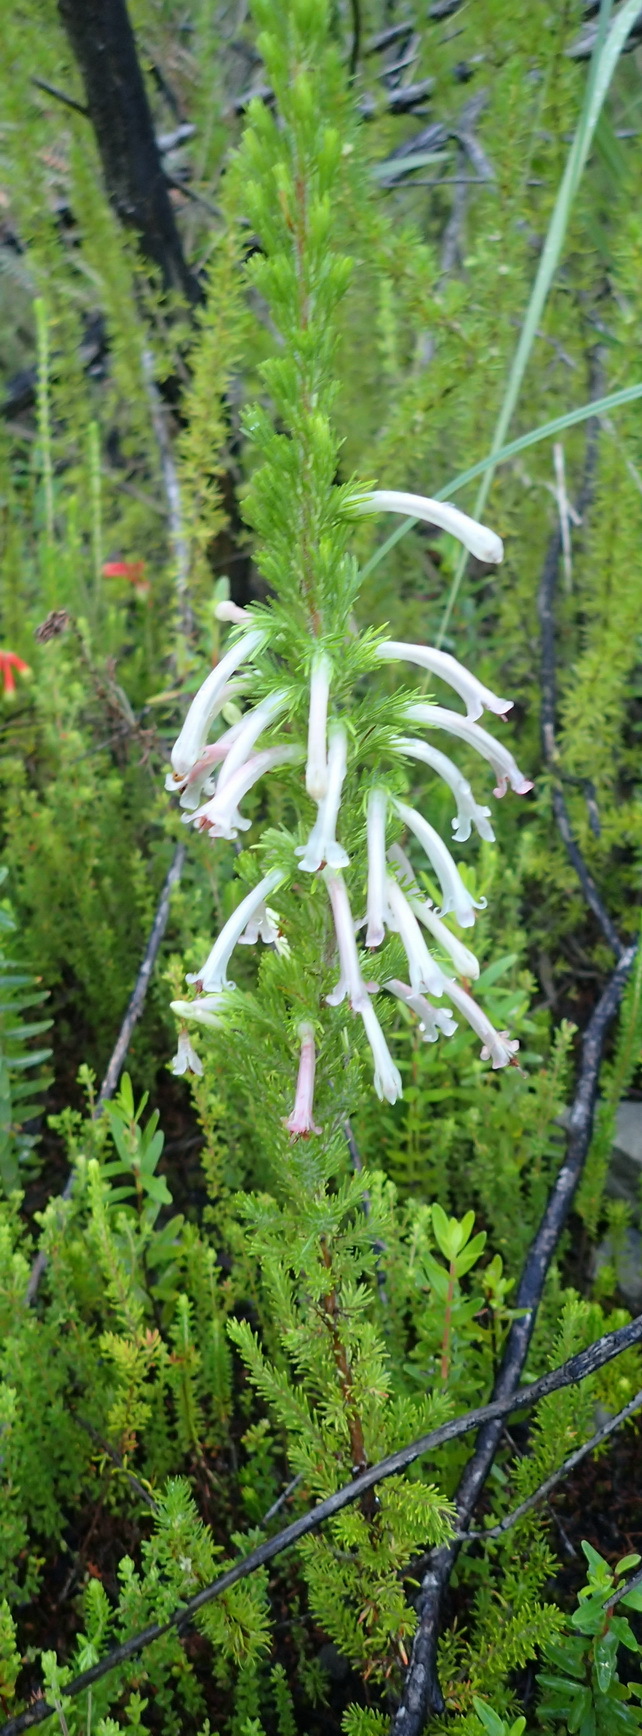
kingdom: Plantae
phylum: Tracheophyta
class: Magnoliopsida
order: Ericales
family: Ericaceae
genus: Erica
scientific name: Erica curviflora
